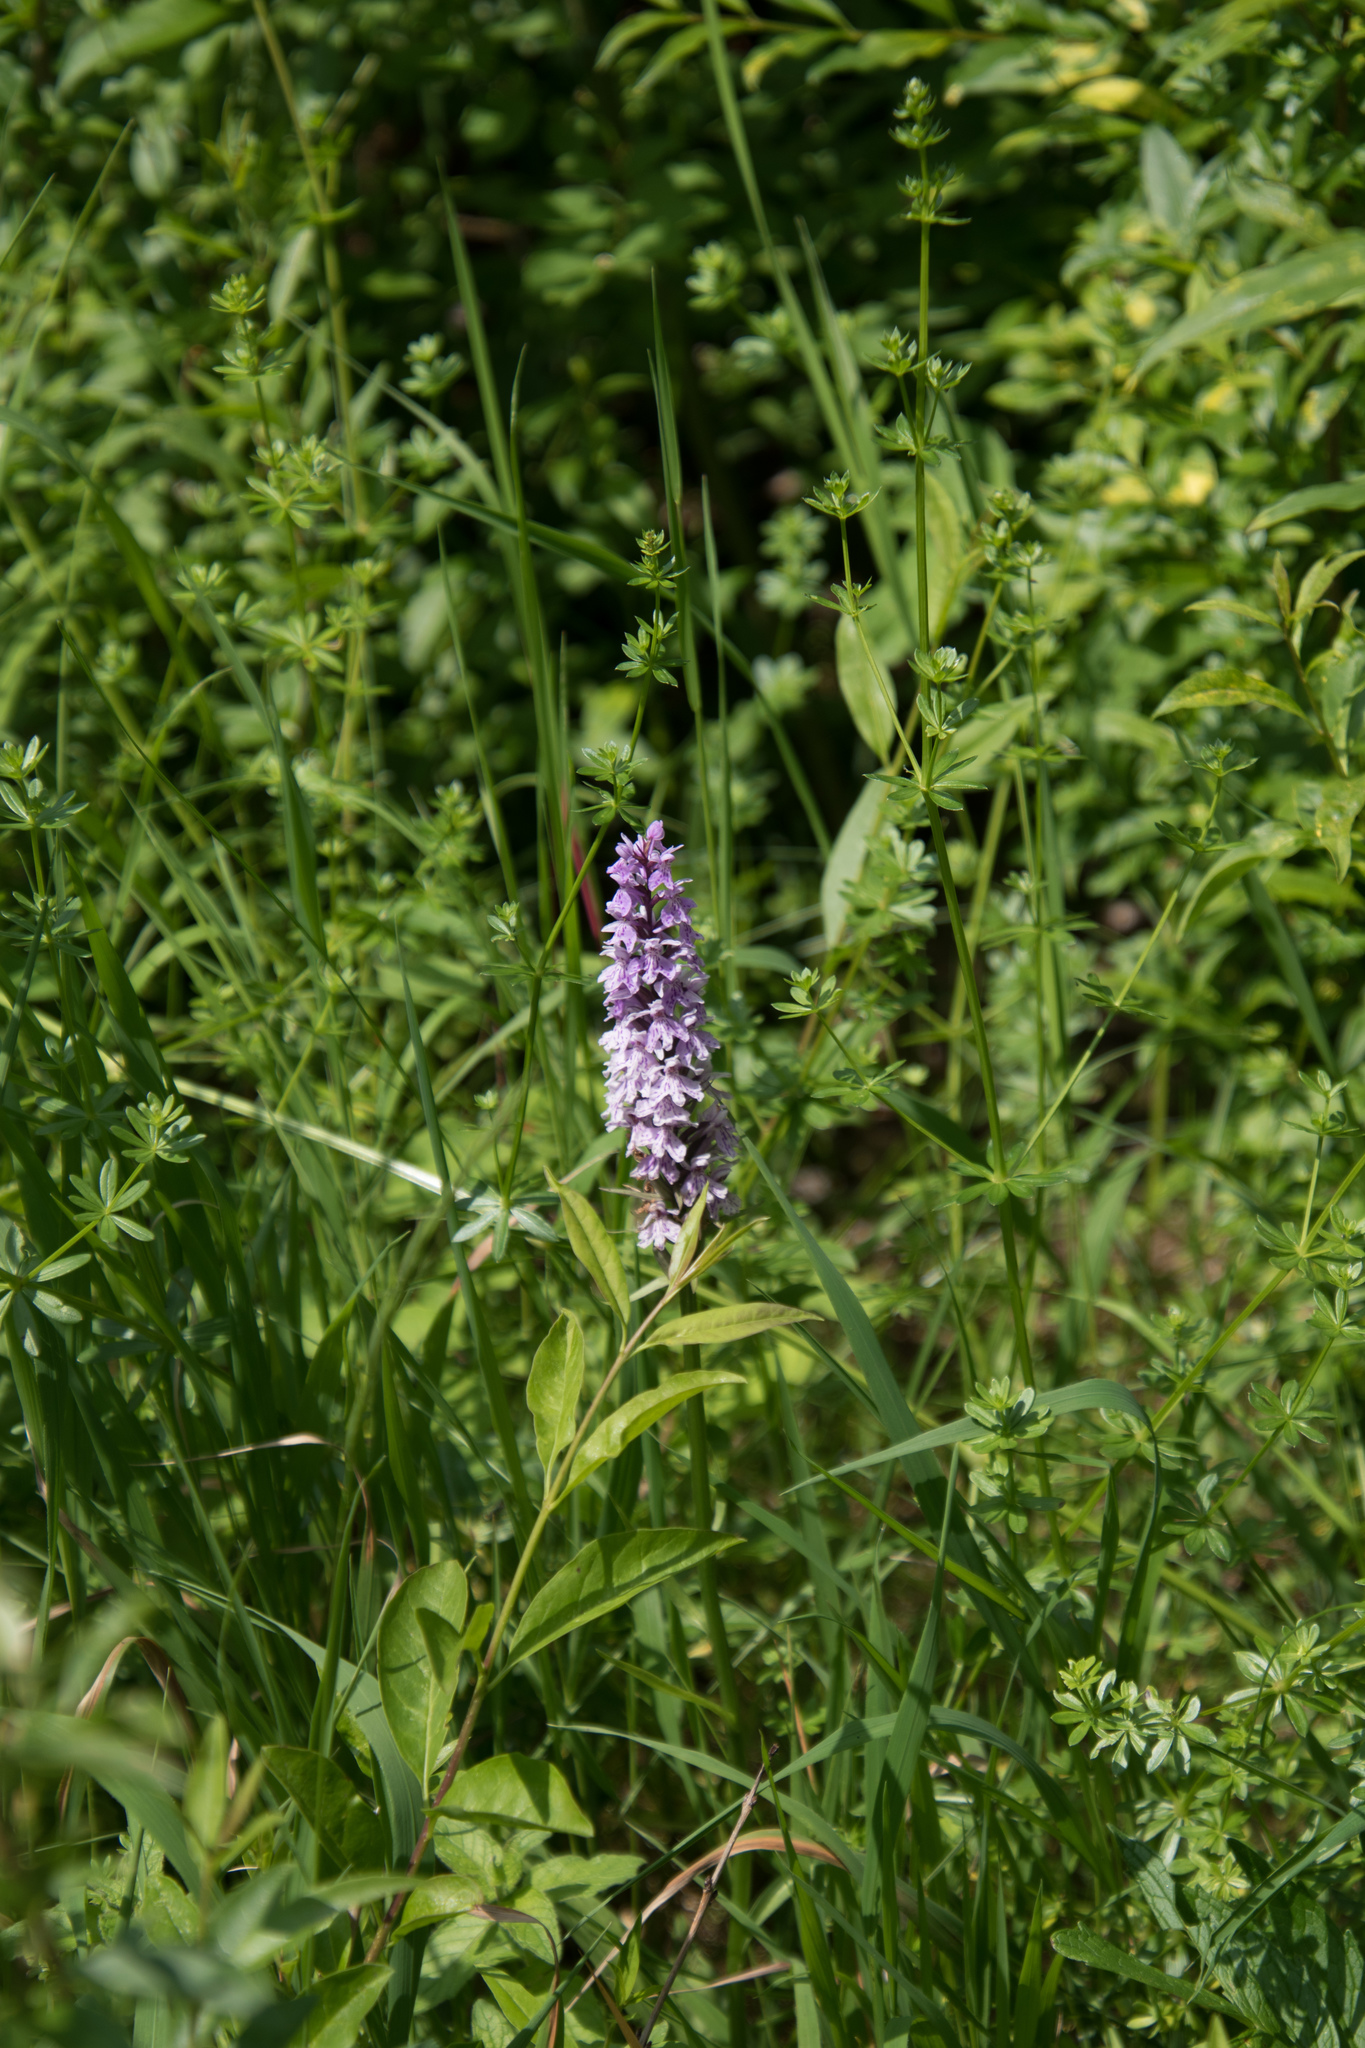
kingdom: Plantae
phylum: Tracheophyta
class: Liliopsida
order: Asparagales
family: Orchidaceae
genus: Dactylorhiza
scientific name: Dactylorhiza maculata
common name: Heath spotted-orchid
